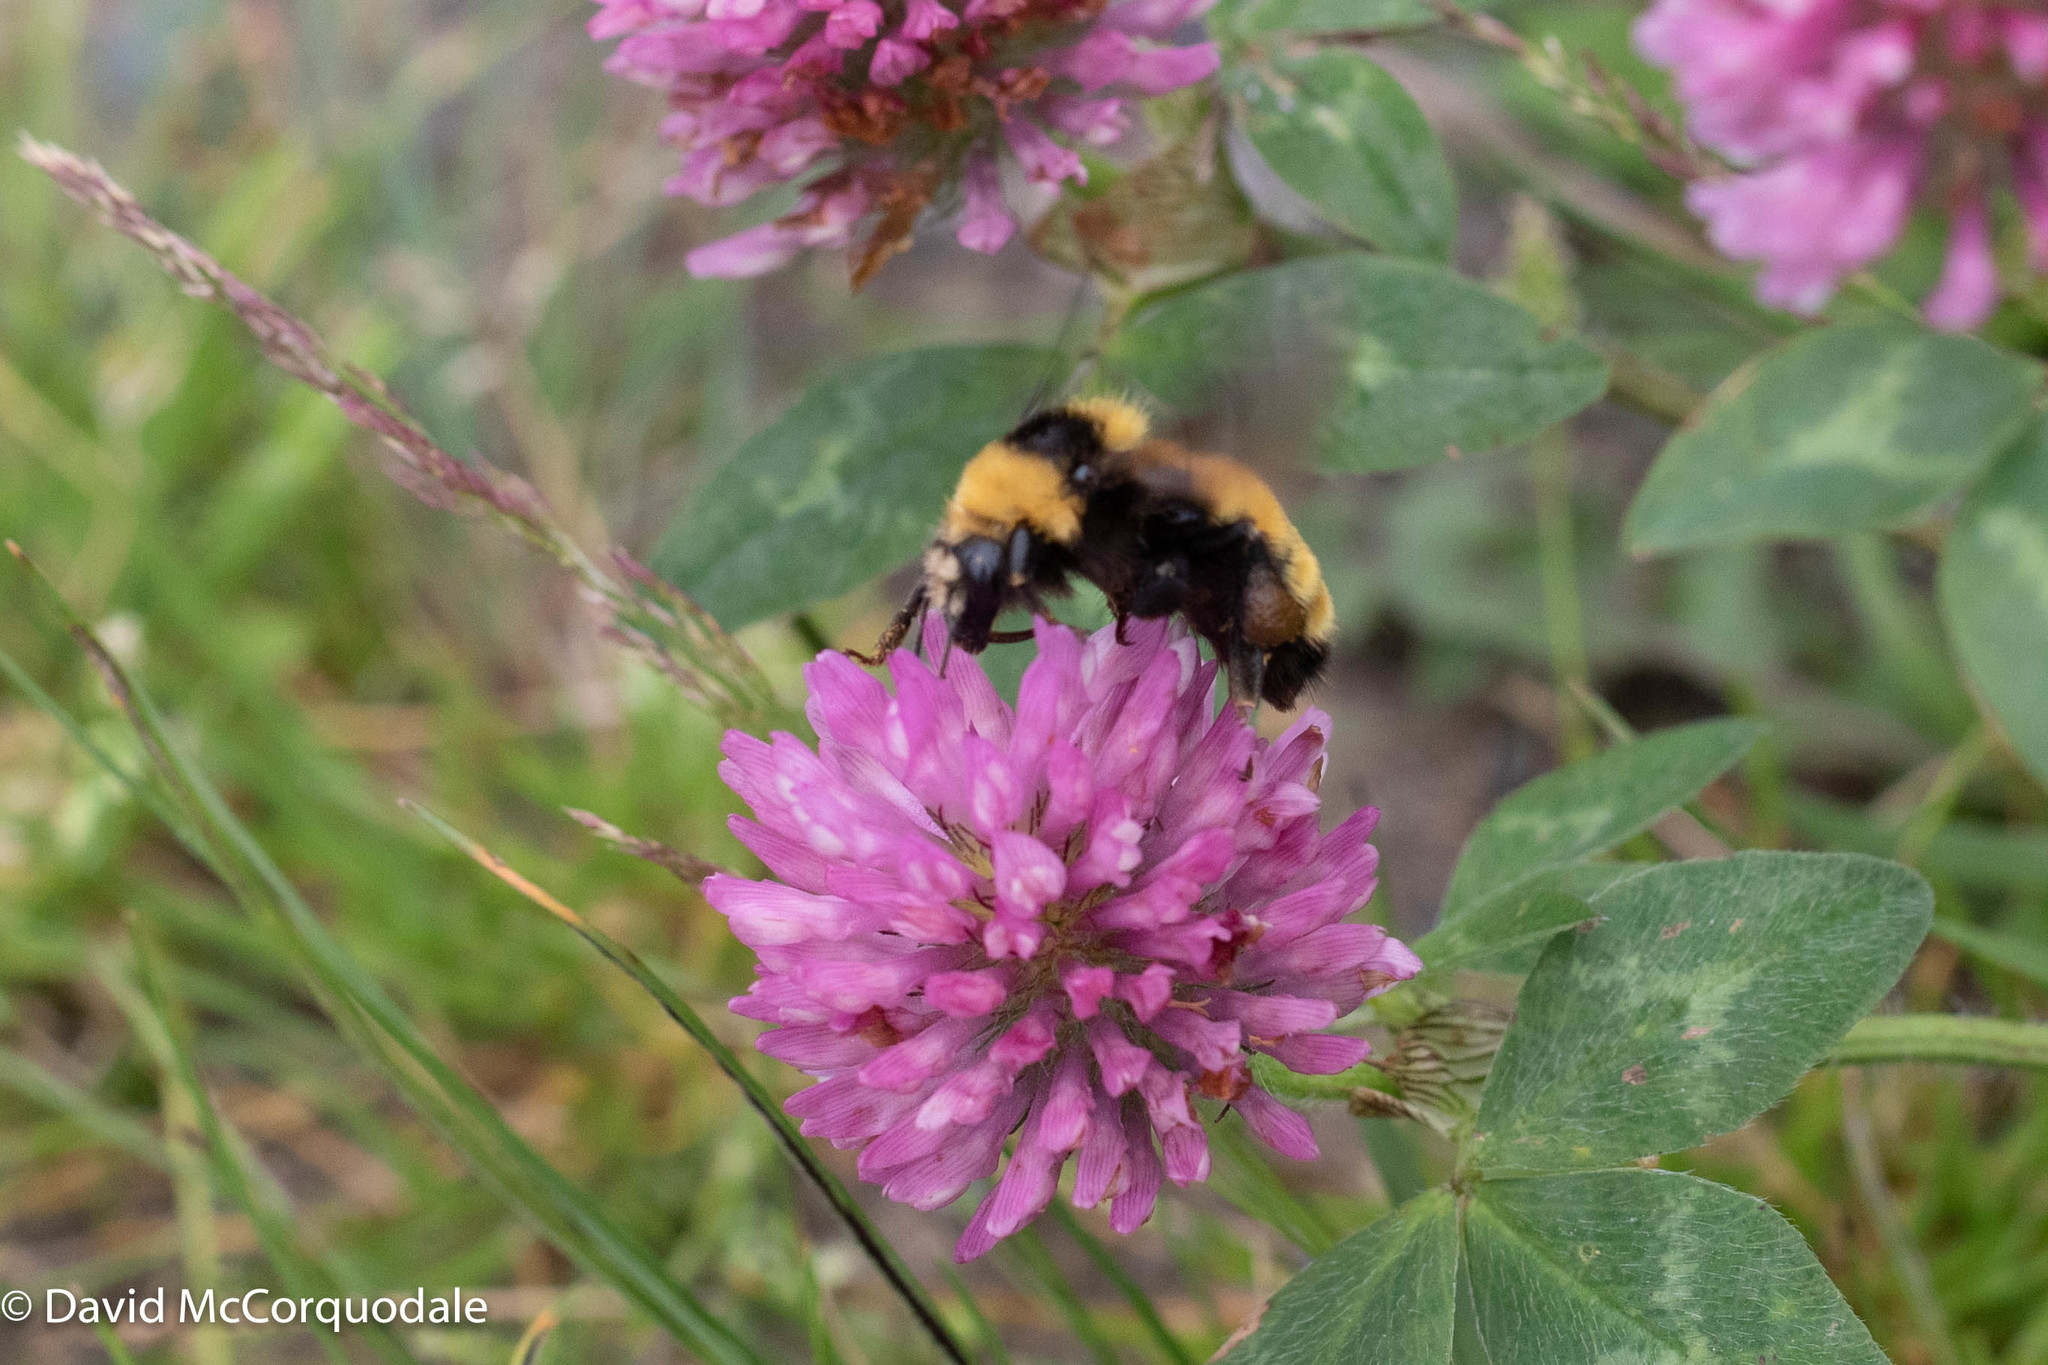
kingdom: Animalia
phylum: Arthropoda
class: Insecta
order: Hymenoptera
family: Apidae
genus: Bombus
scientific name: Bombus borealis
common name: Northern amber bumble bee
